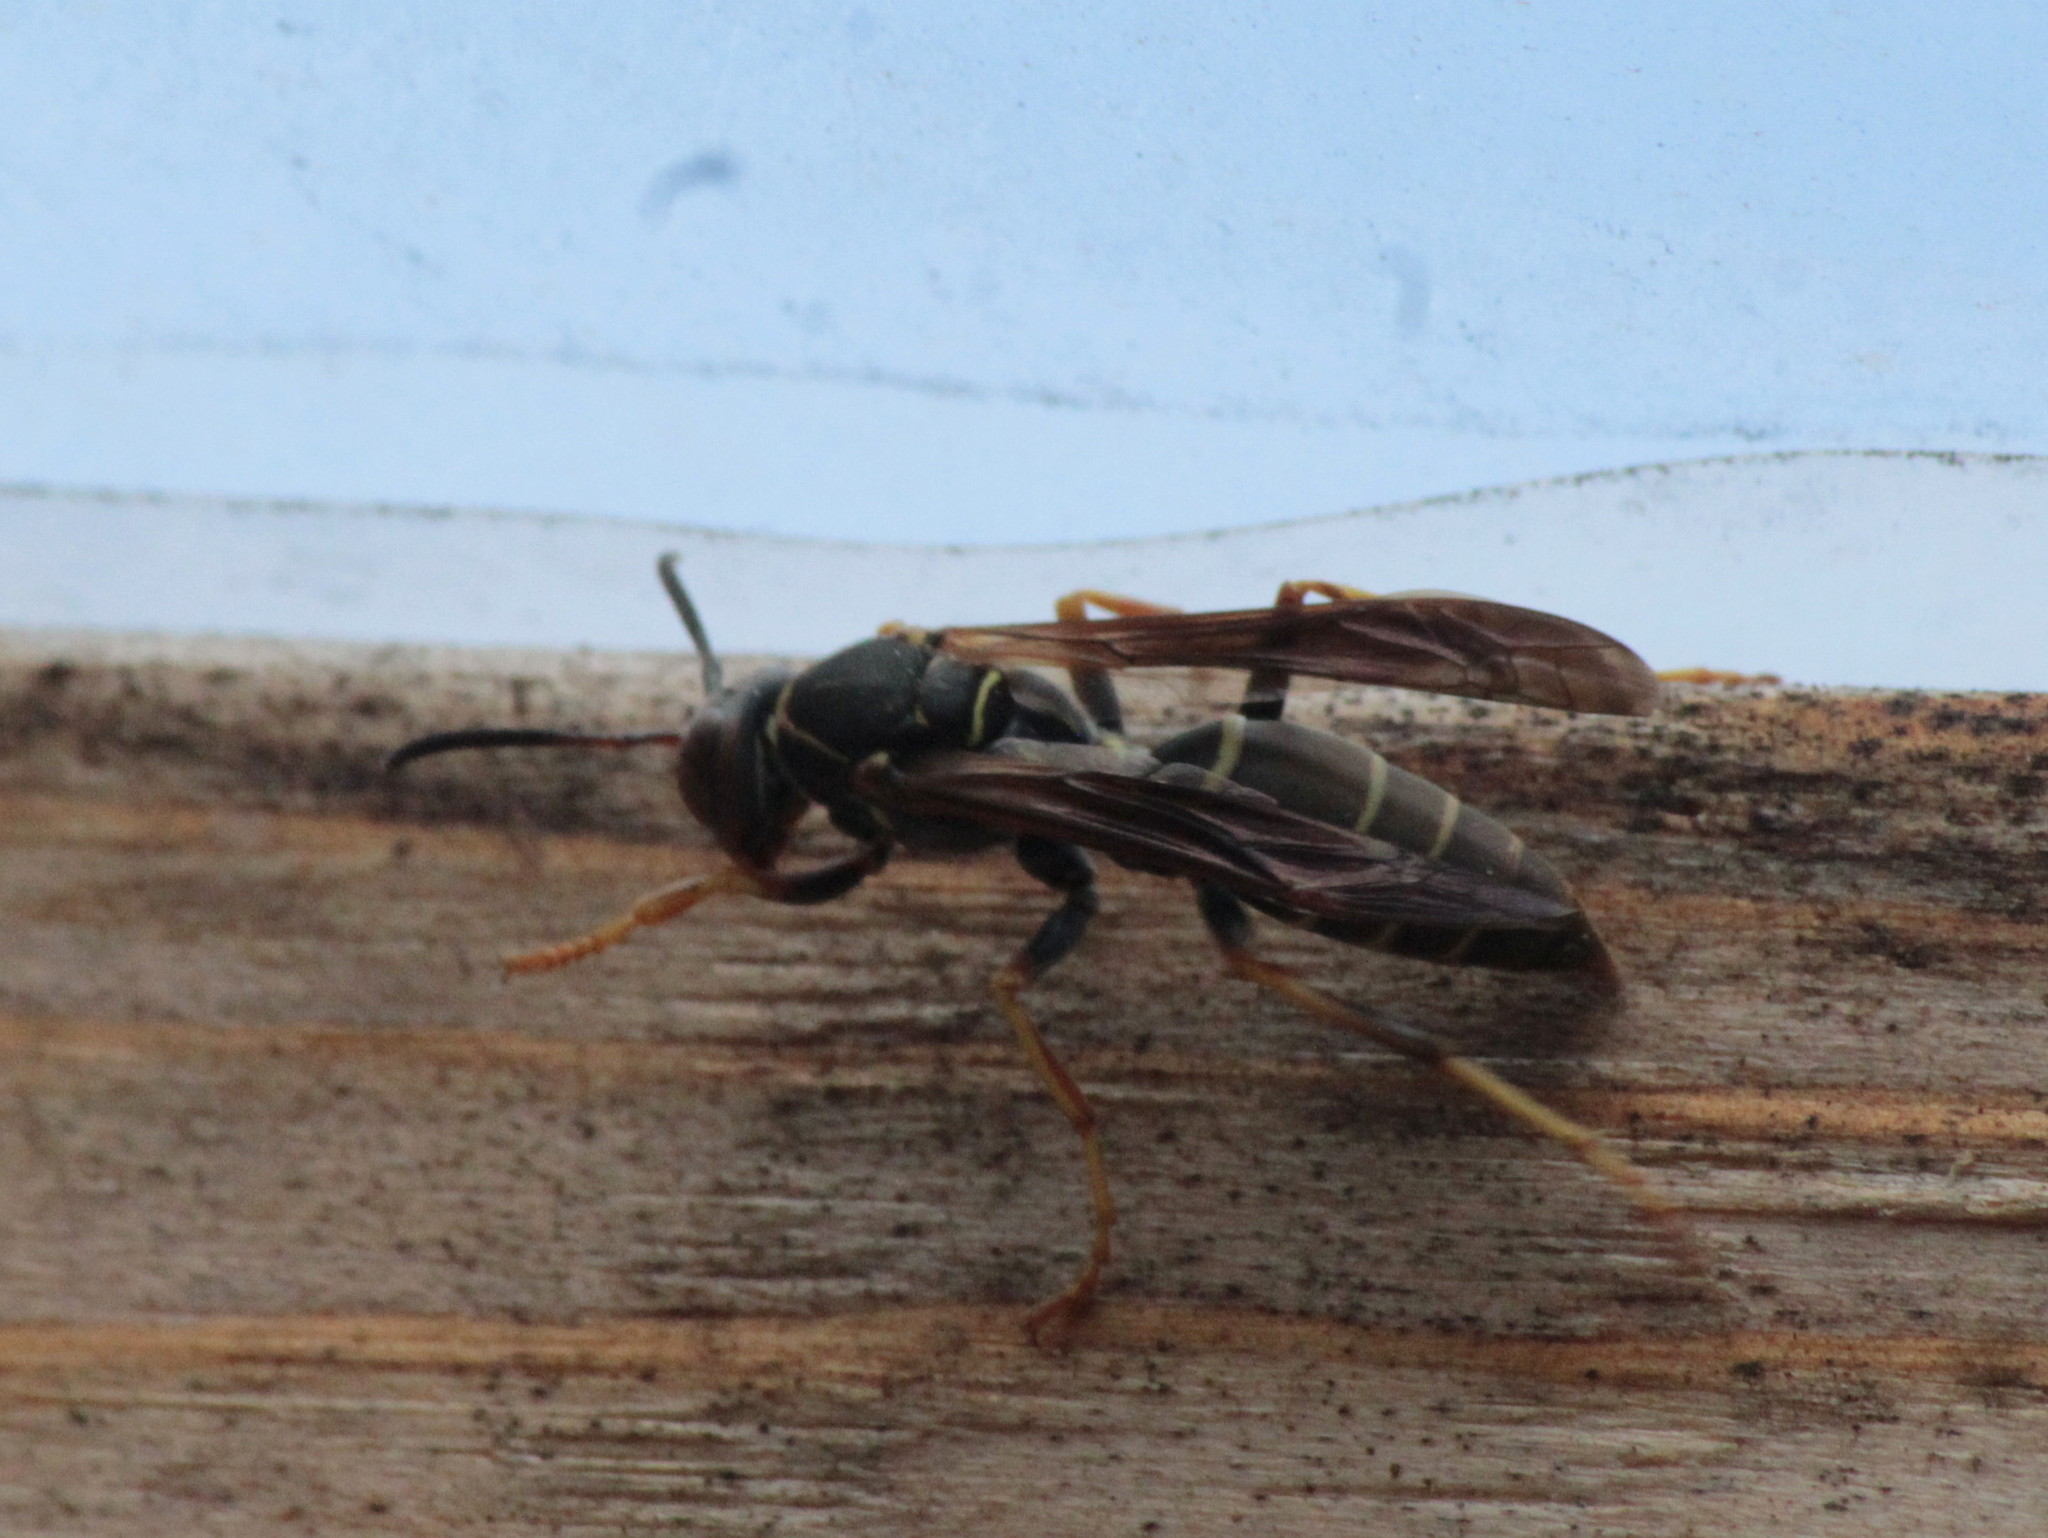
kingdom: Animalia
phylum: Arthropoda
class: Insecta
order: Hymenoptera
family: Eumenidae
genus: Polistes
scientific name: Polistes fuscatus
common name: Dark paper wasp
